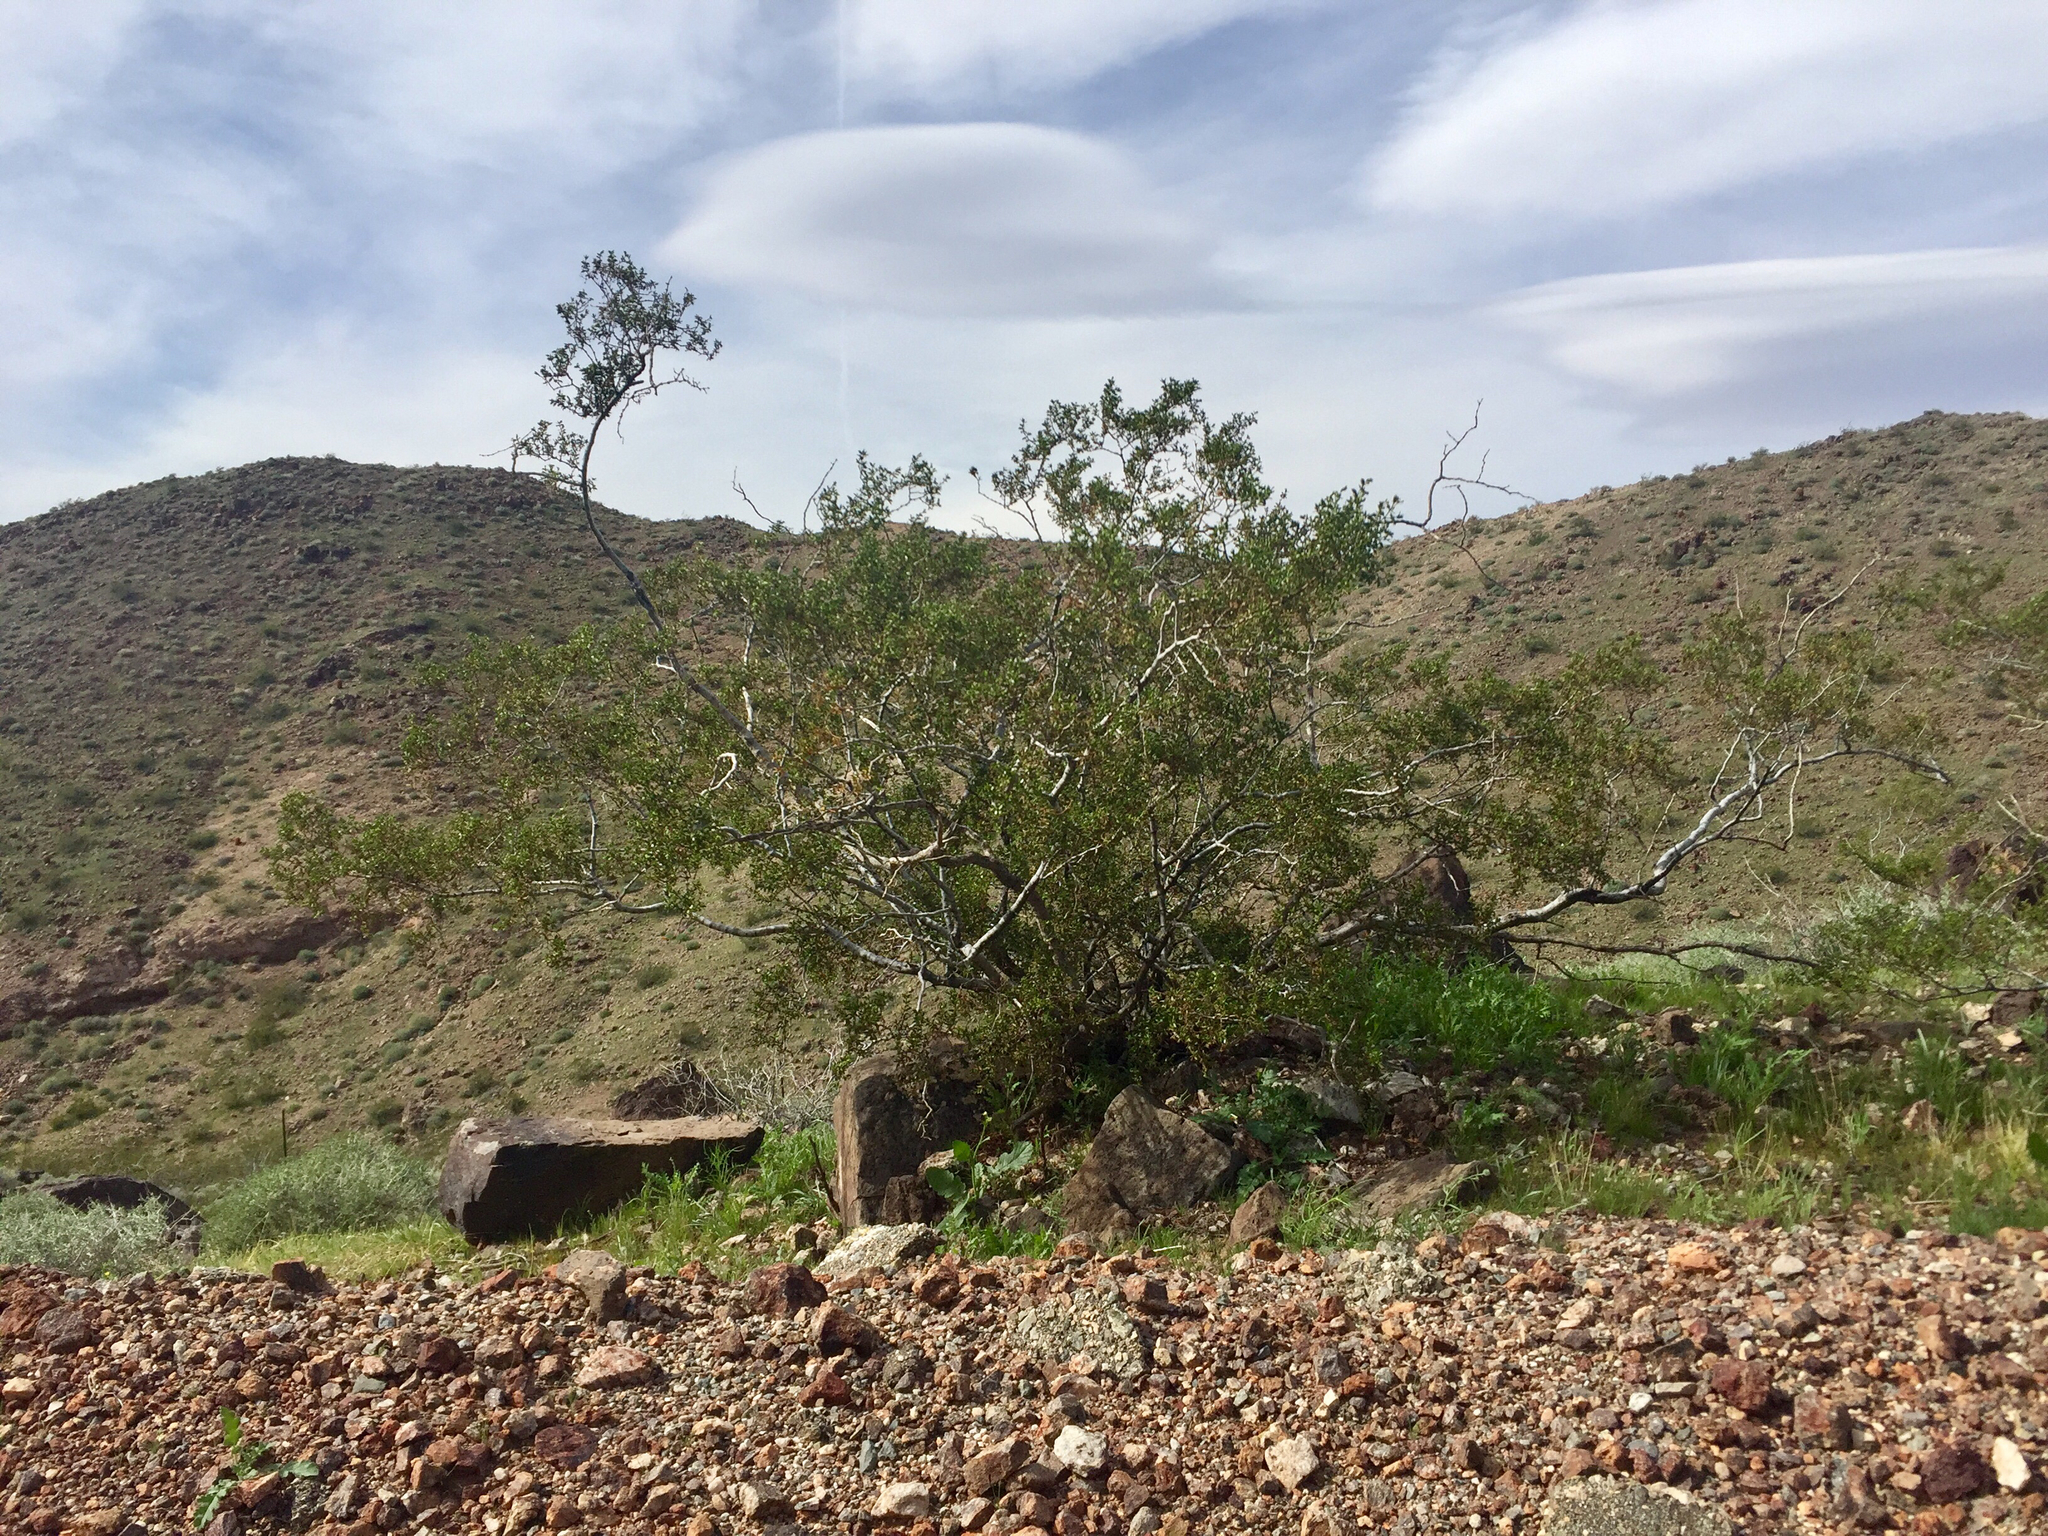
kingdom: Plantae
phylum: Tracheophyta
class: Magnoliopsida
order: Zygophyllales
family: Zygophyllaceae
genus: Larrea
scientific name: Larrea tridentata
